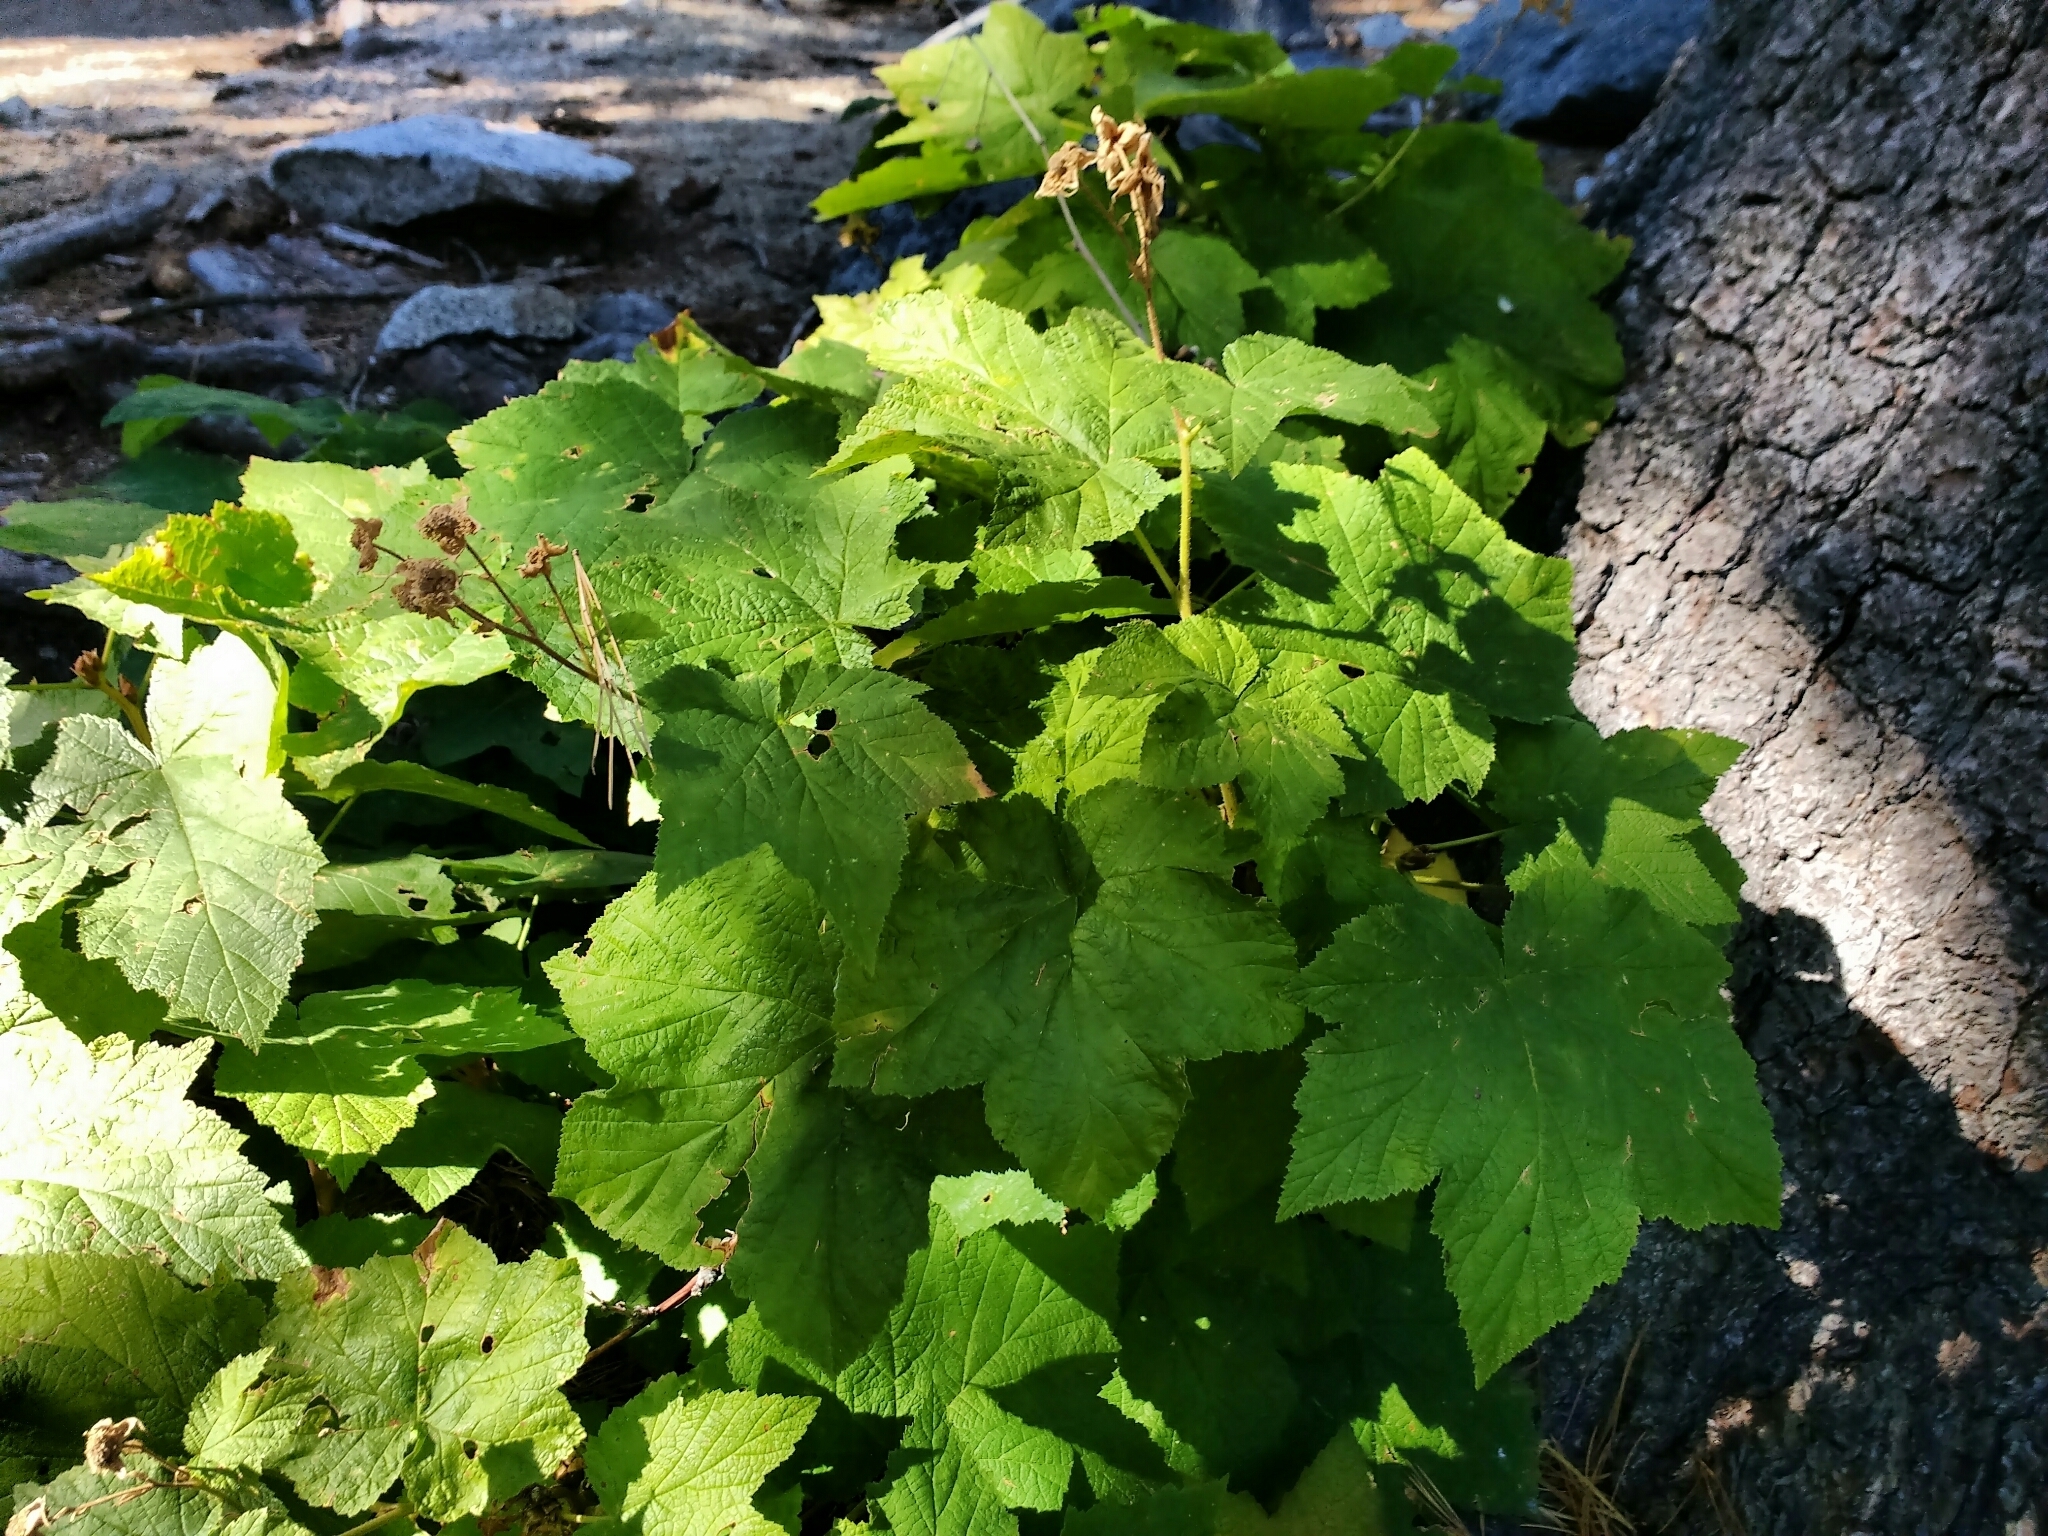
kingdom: Plantae
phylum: Tracheophyta
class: Magnoliopsida
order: Rosales
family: Rosaceae
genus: Rubus
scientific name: Rubus parviflorus
